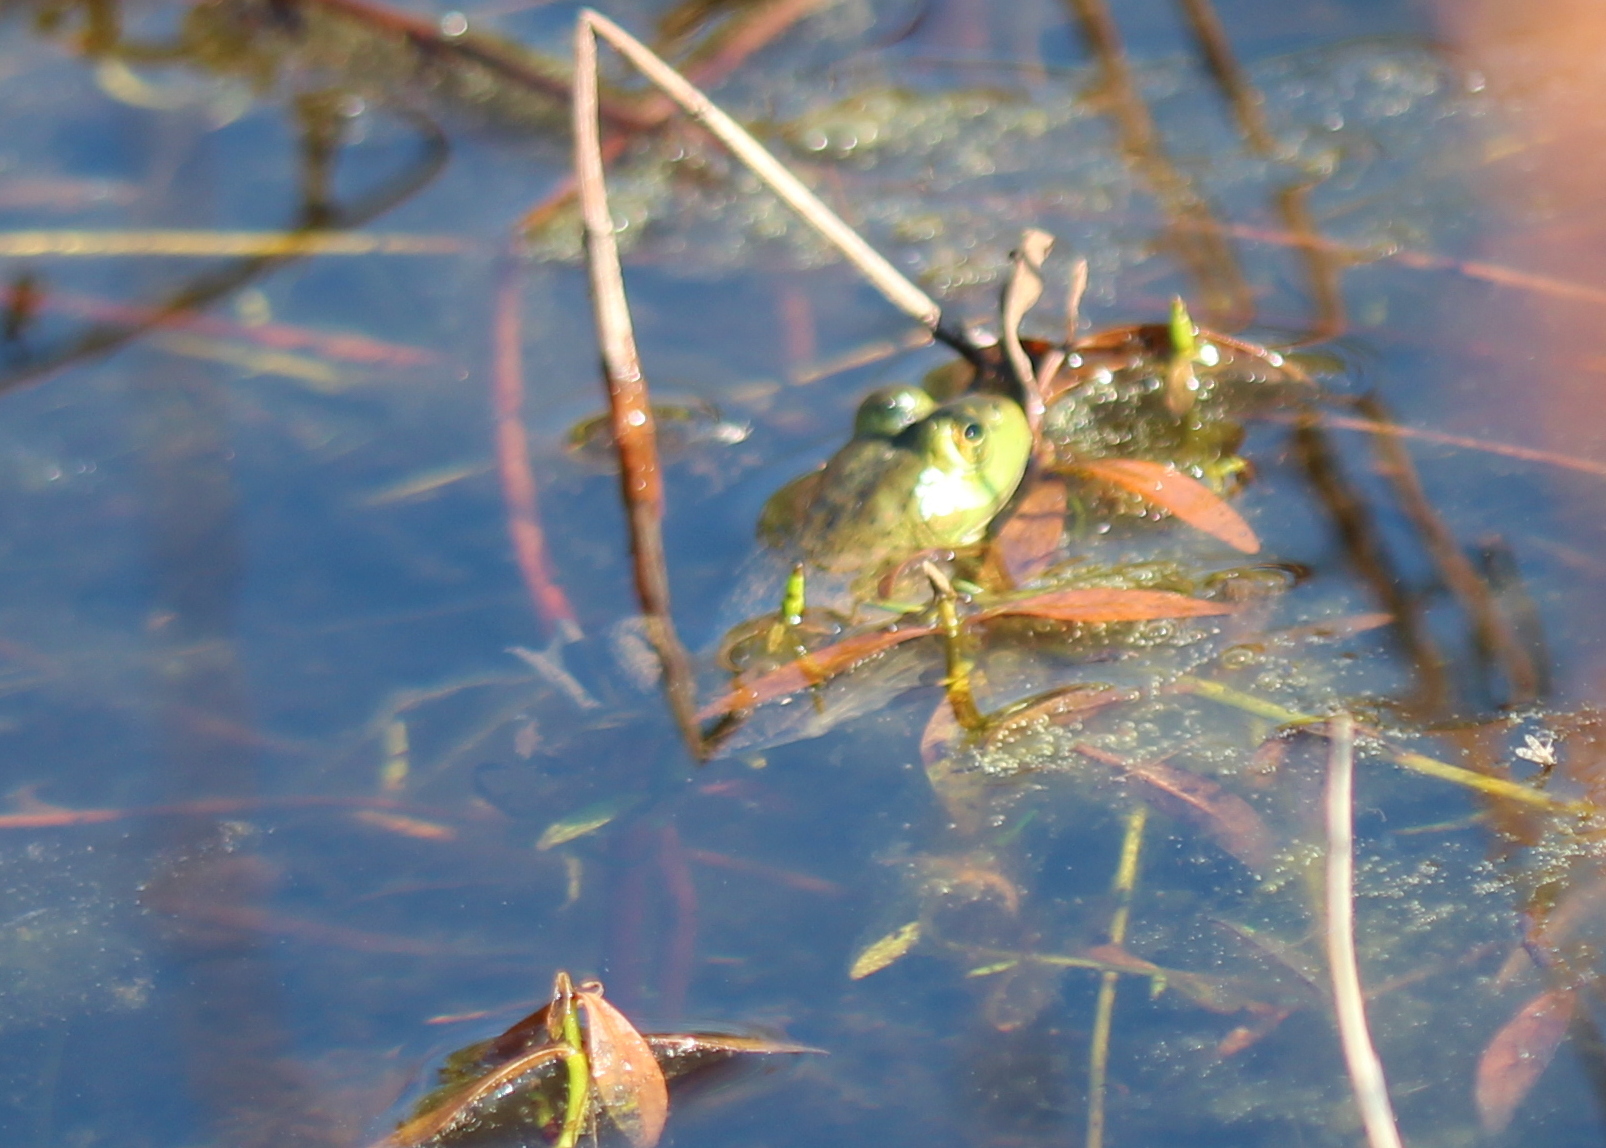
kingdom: Animalia
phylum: Chordata
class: Amphibia
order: Anura
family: Ranidae
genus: Lithobates
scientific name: Lithobates catesbeianus
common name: American bullfrog
